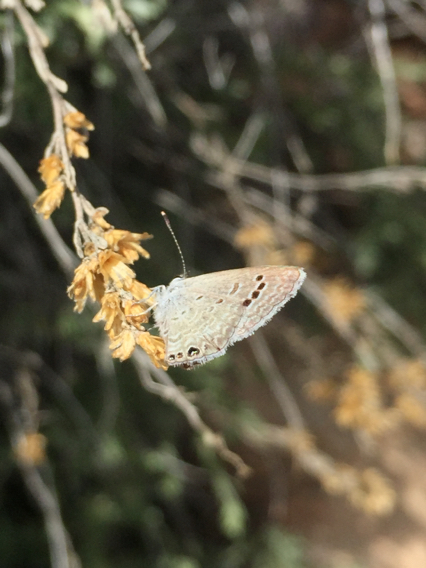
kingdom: Animalia
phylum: Arthropoda
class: Insecta
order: Lepidoptera
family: Lycaenidae
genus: Echinargus
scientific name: Echinargus isola
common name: Reakirt's blue
